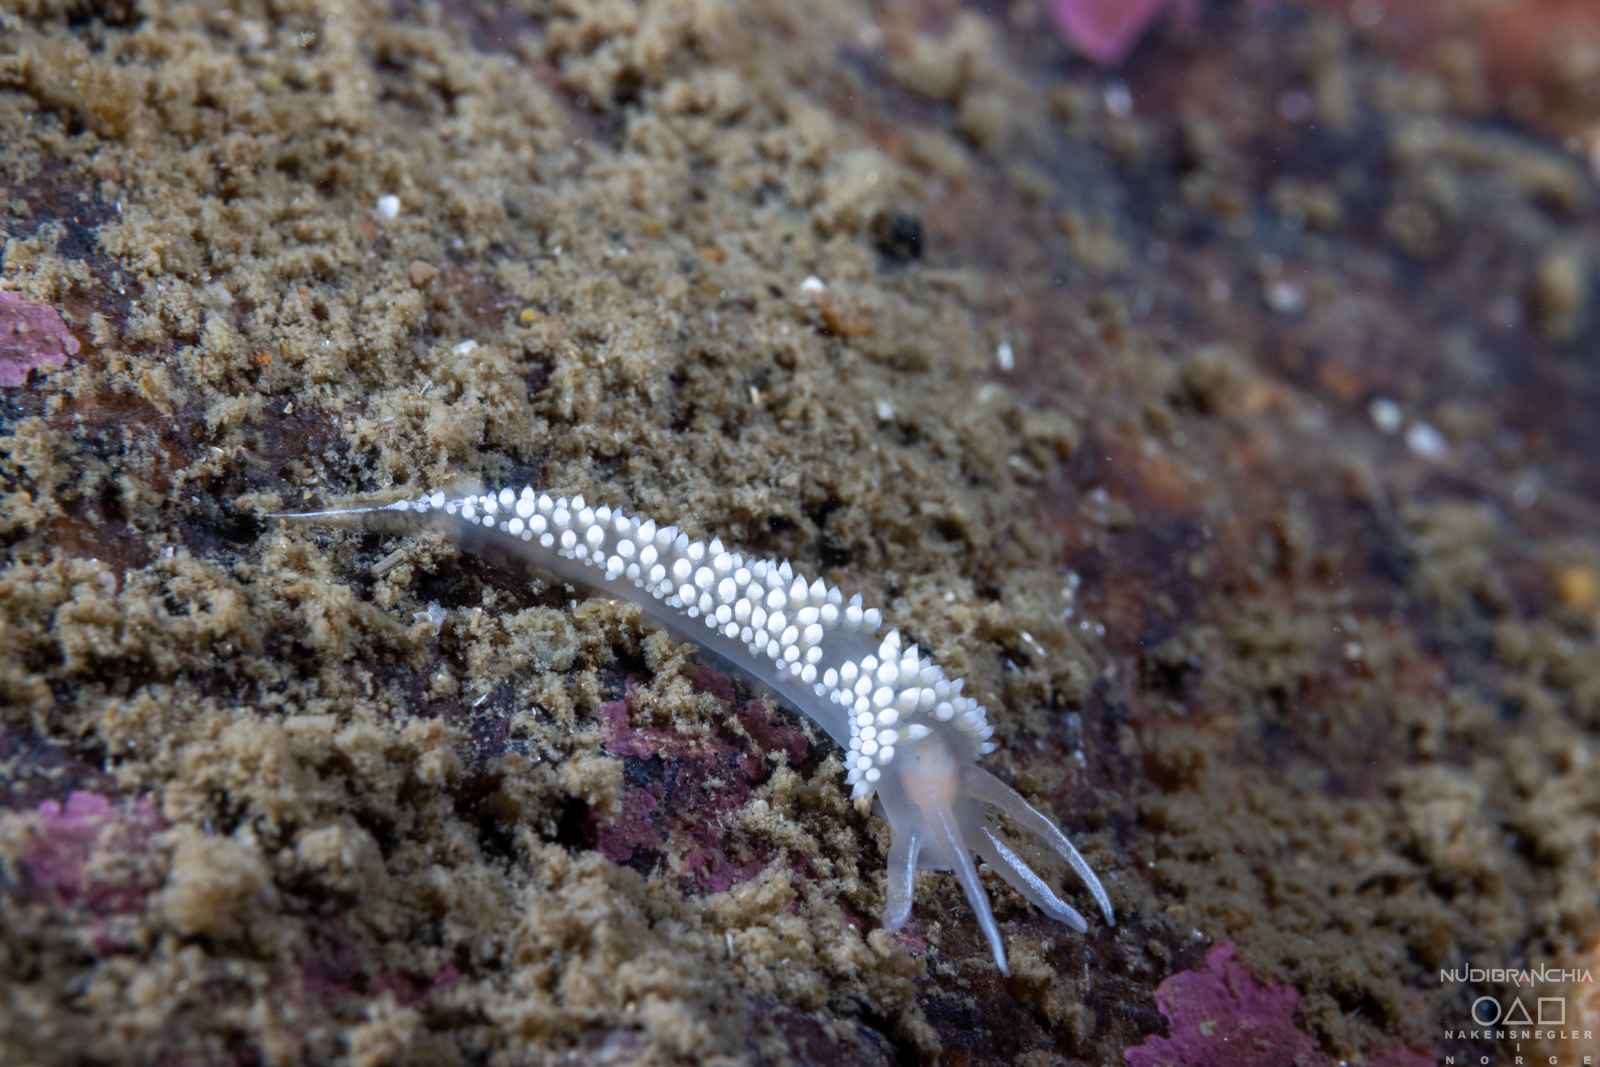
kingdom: Animalia
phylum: Mollusca
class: Gastropoda
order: Nudibranchia
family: Coryphellidae
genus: Coryphella
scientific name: Coryphella verrucosa
